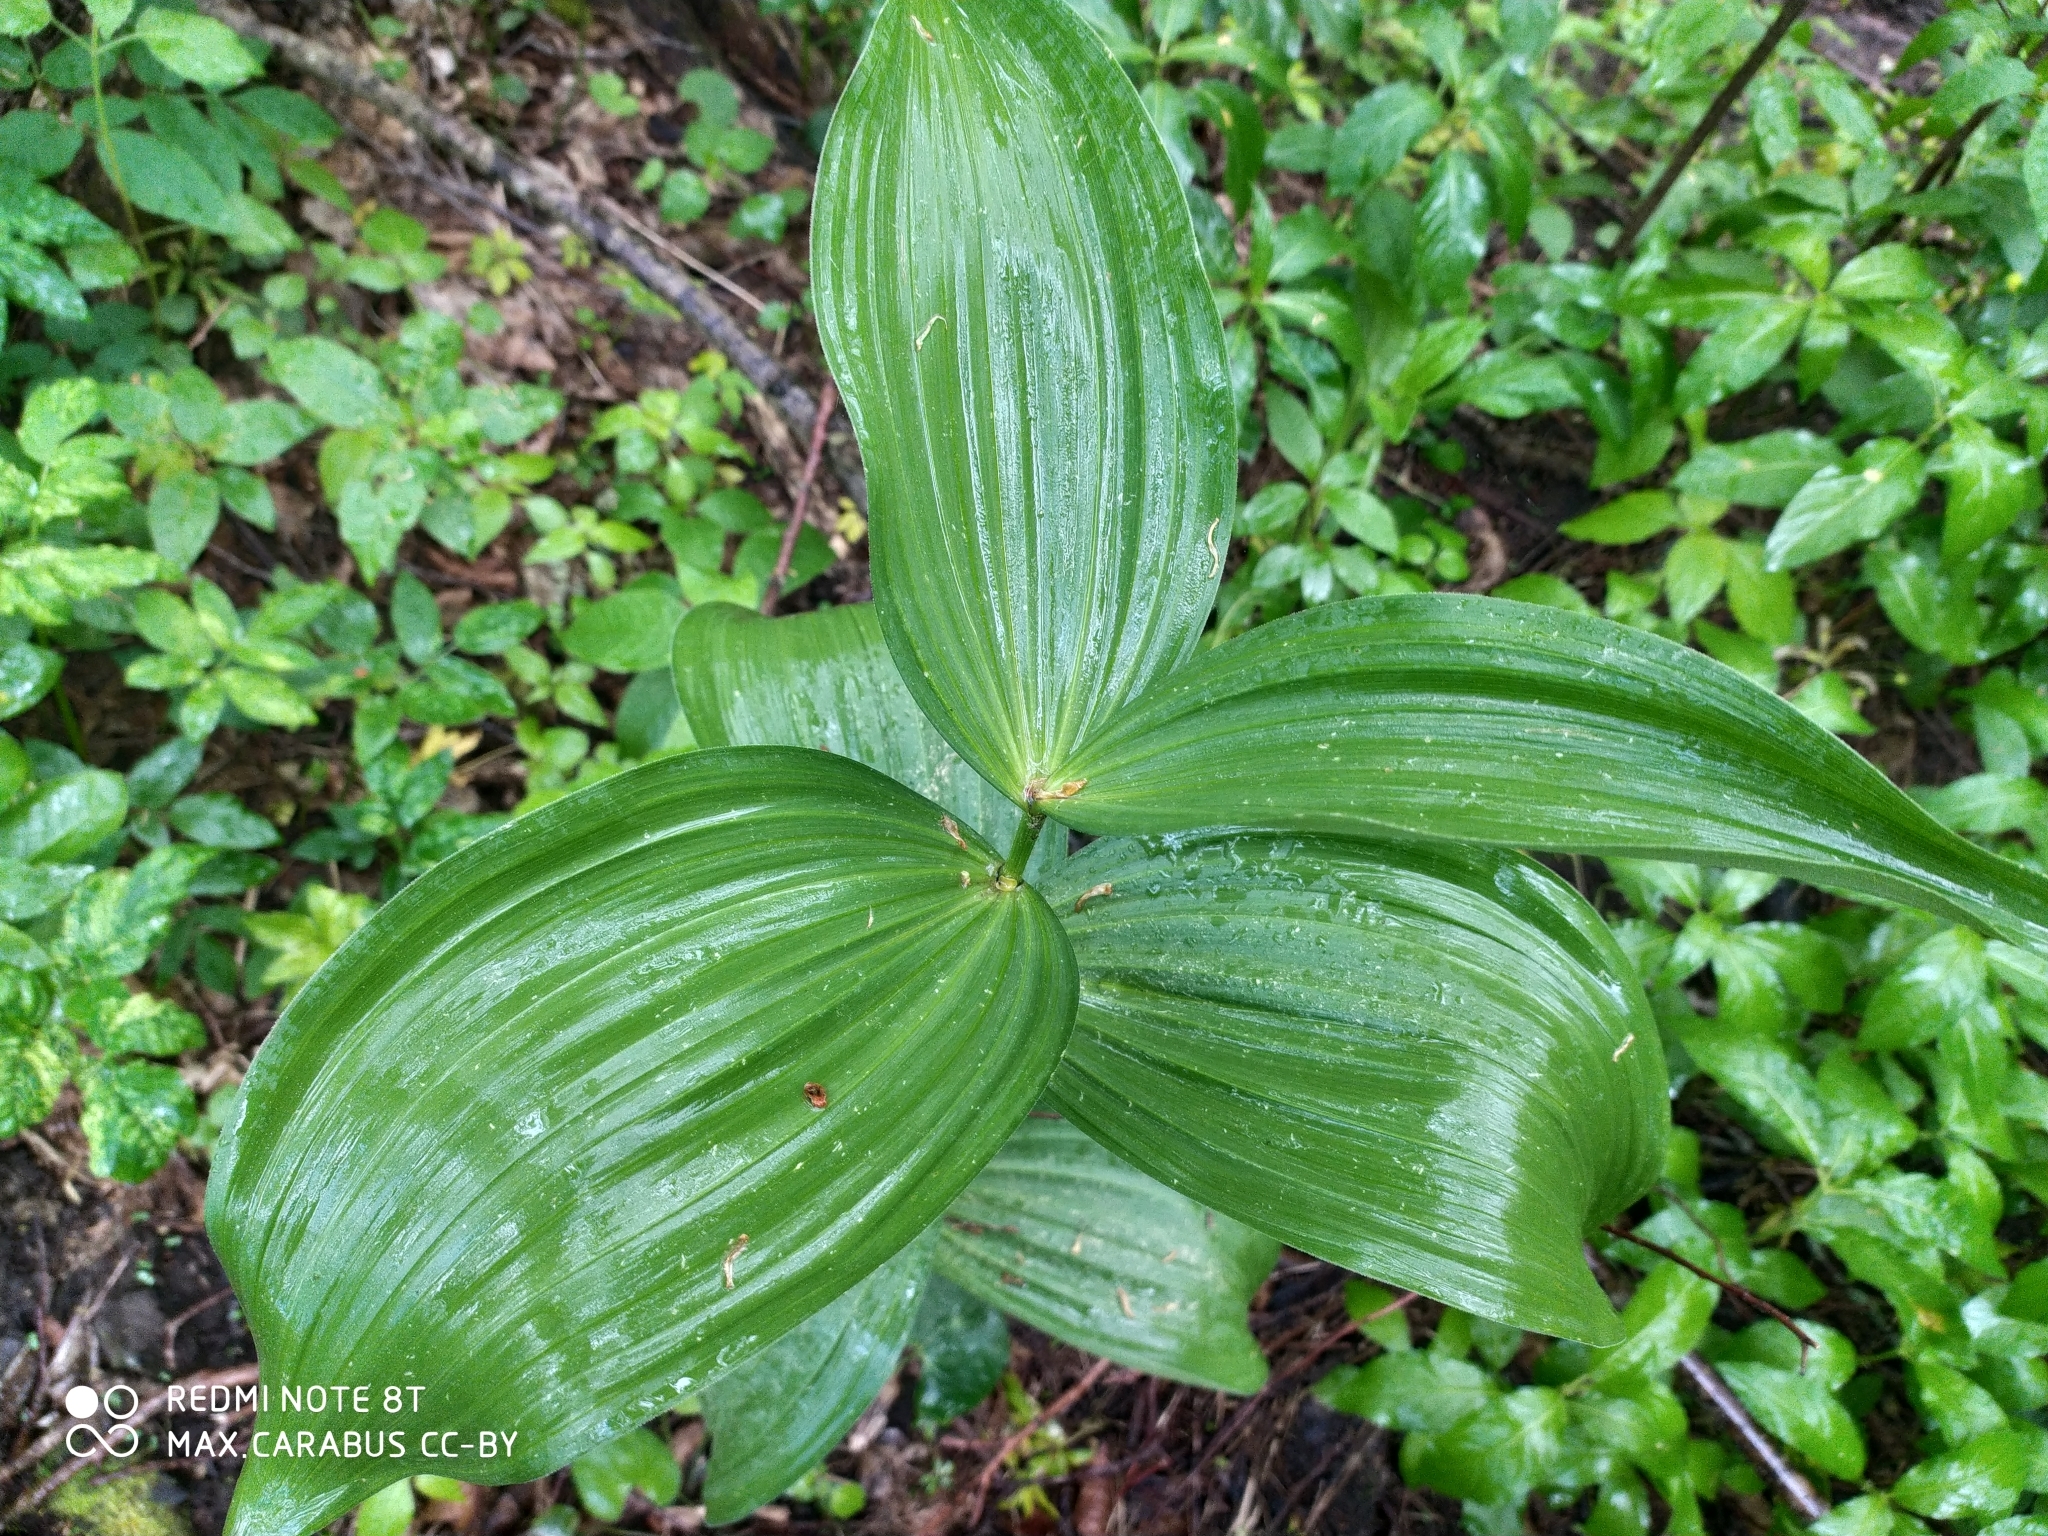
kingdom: Plantae
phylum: Tracheophyta
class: Liliopsida
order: Liliales
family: Melanthiaceae
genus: Veratrum
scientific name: Veratrum lobelianum
